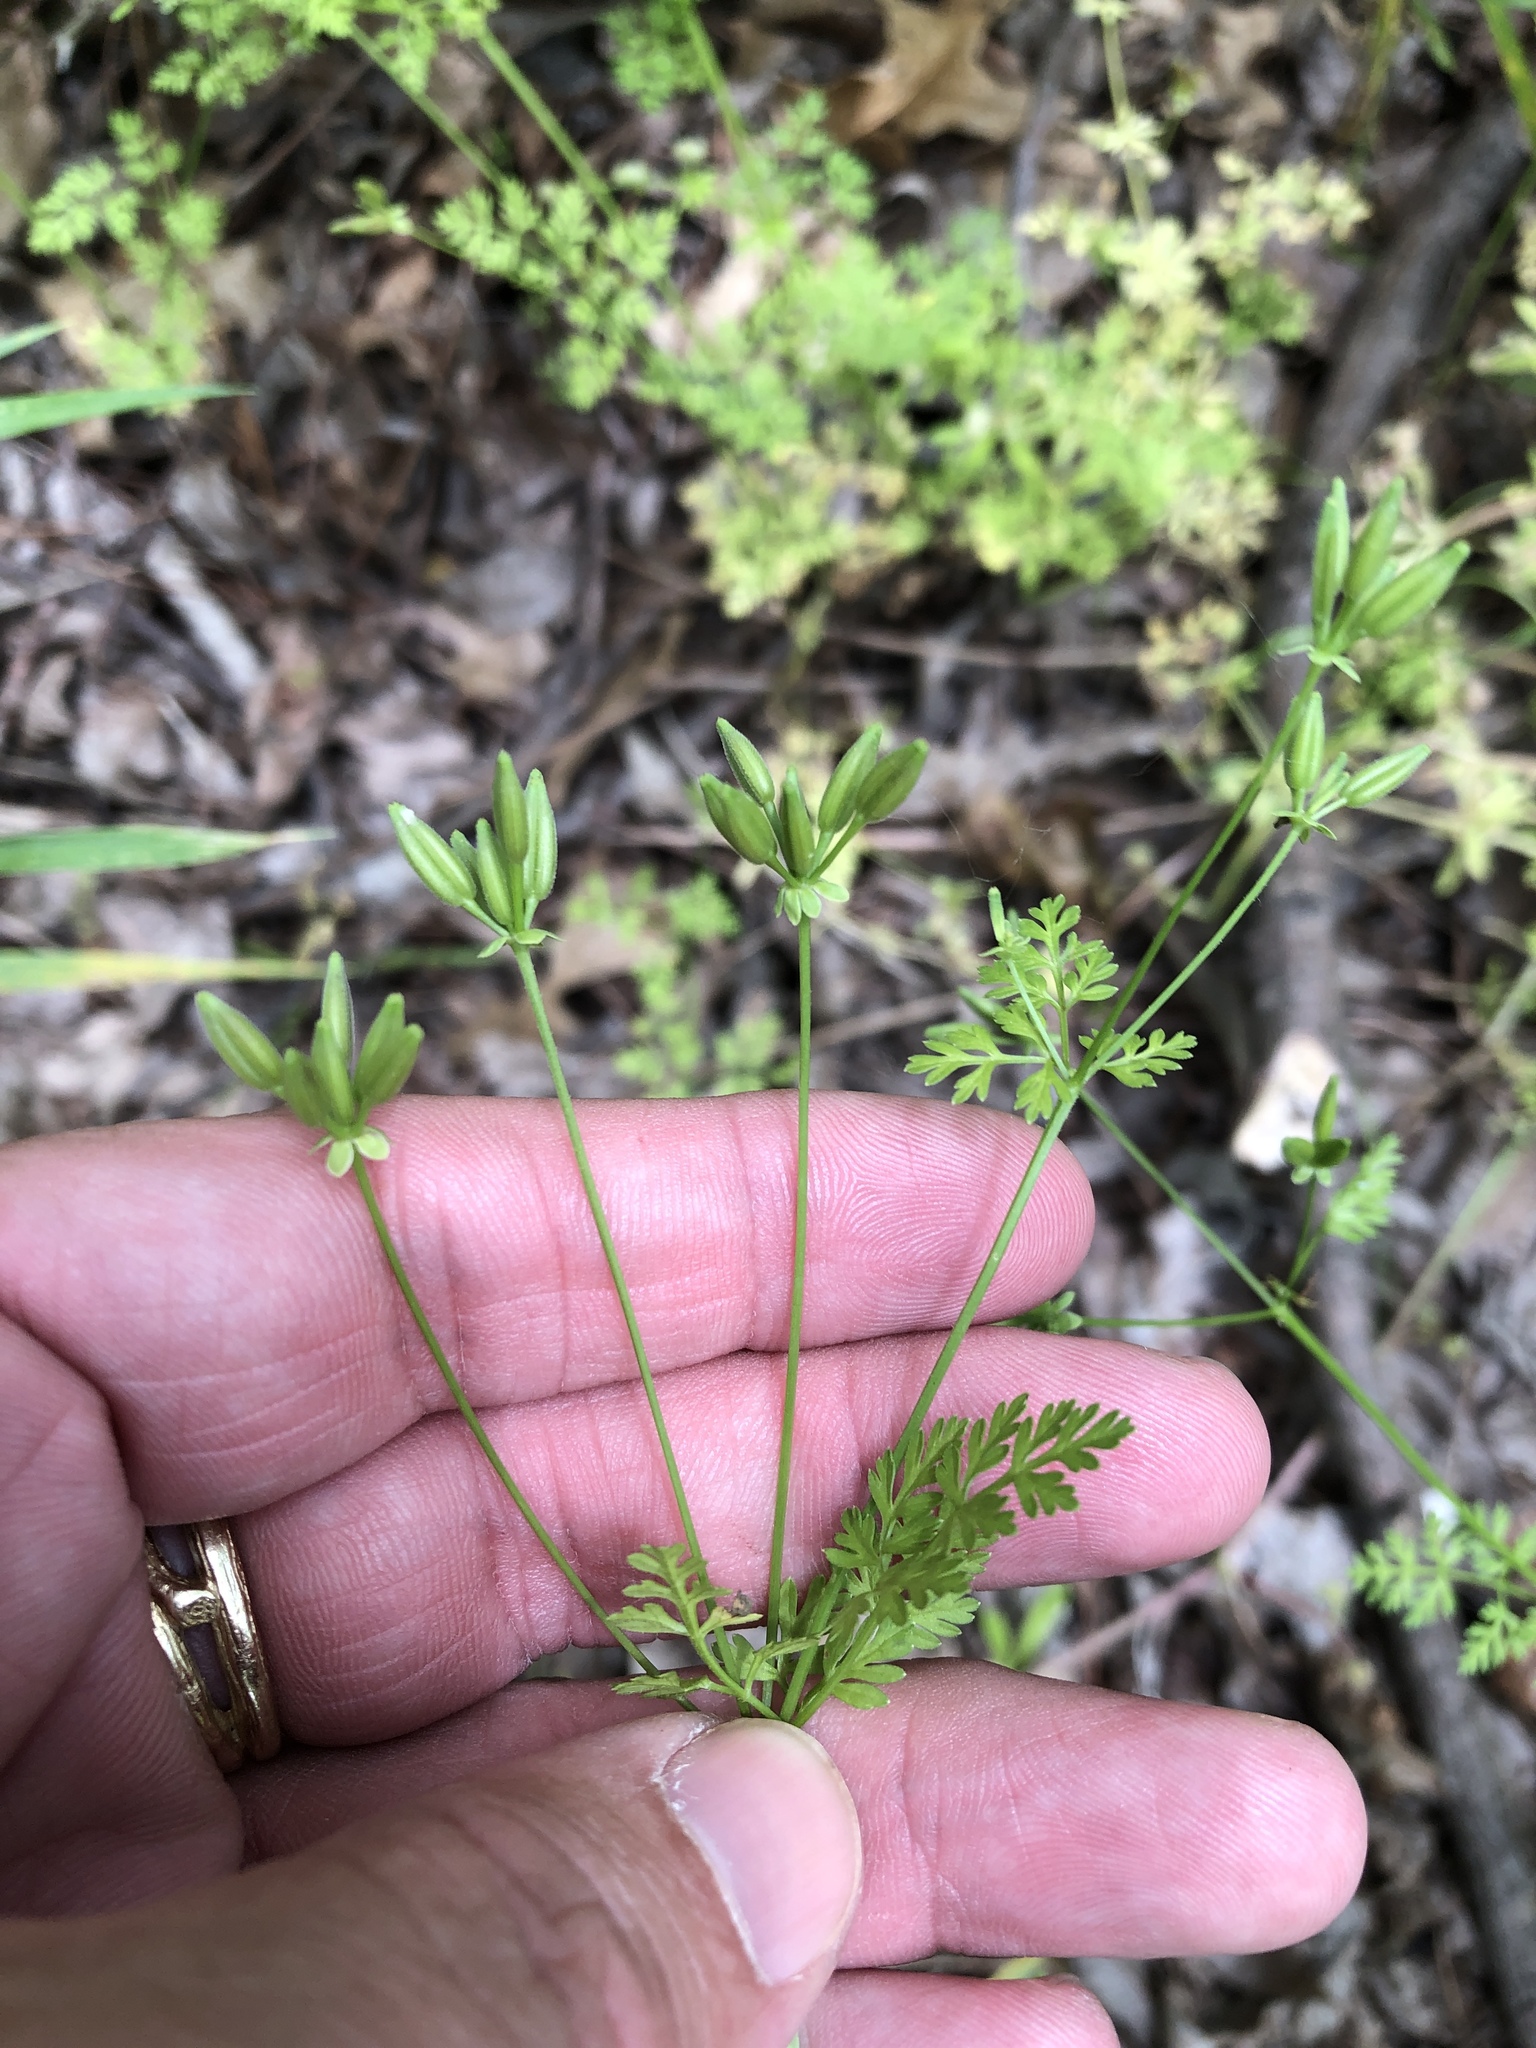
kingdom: Plantae
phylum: Tracheophyta
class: Magnoliopsida
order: Apiales
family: Apiaceae
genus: Chaerophyllum
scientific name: Chaerophyllum tainturieri
